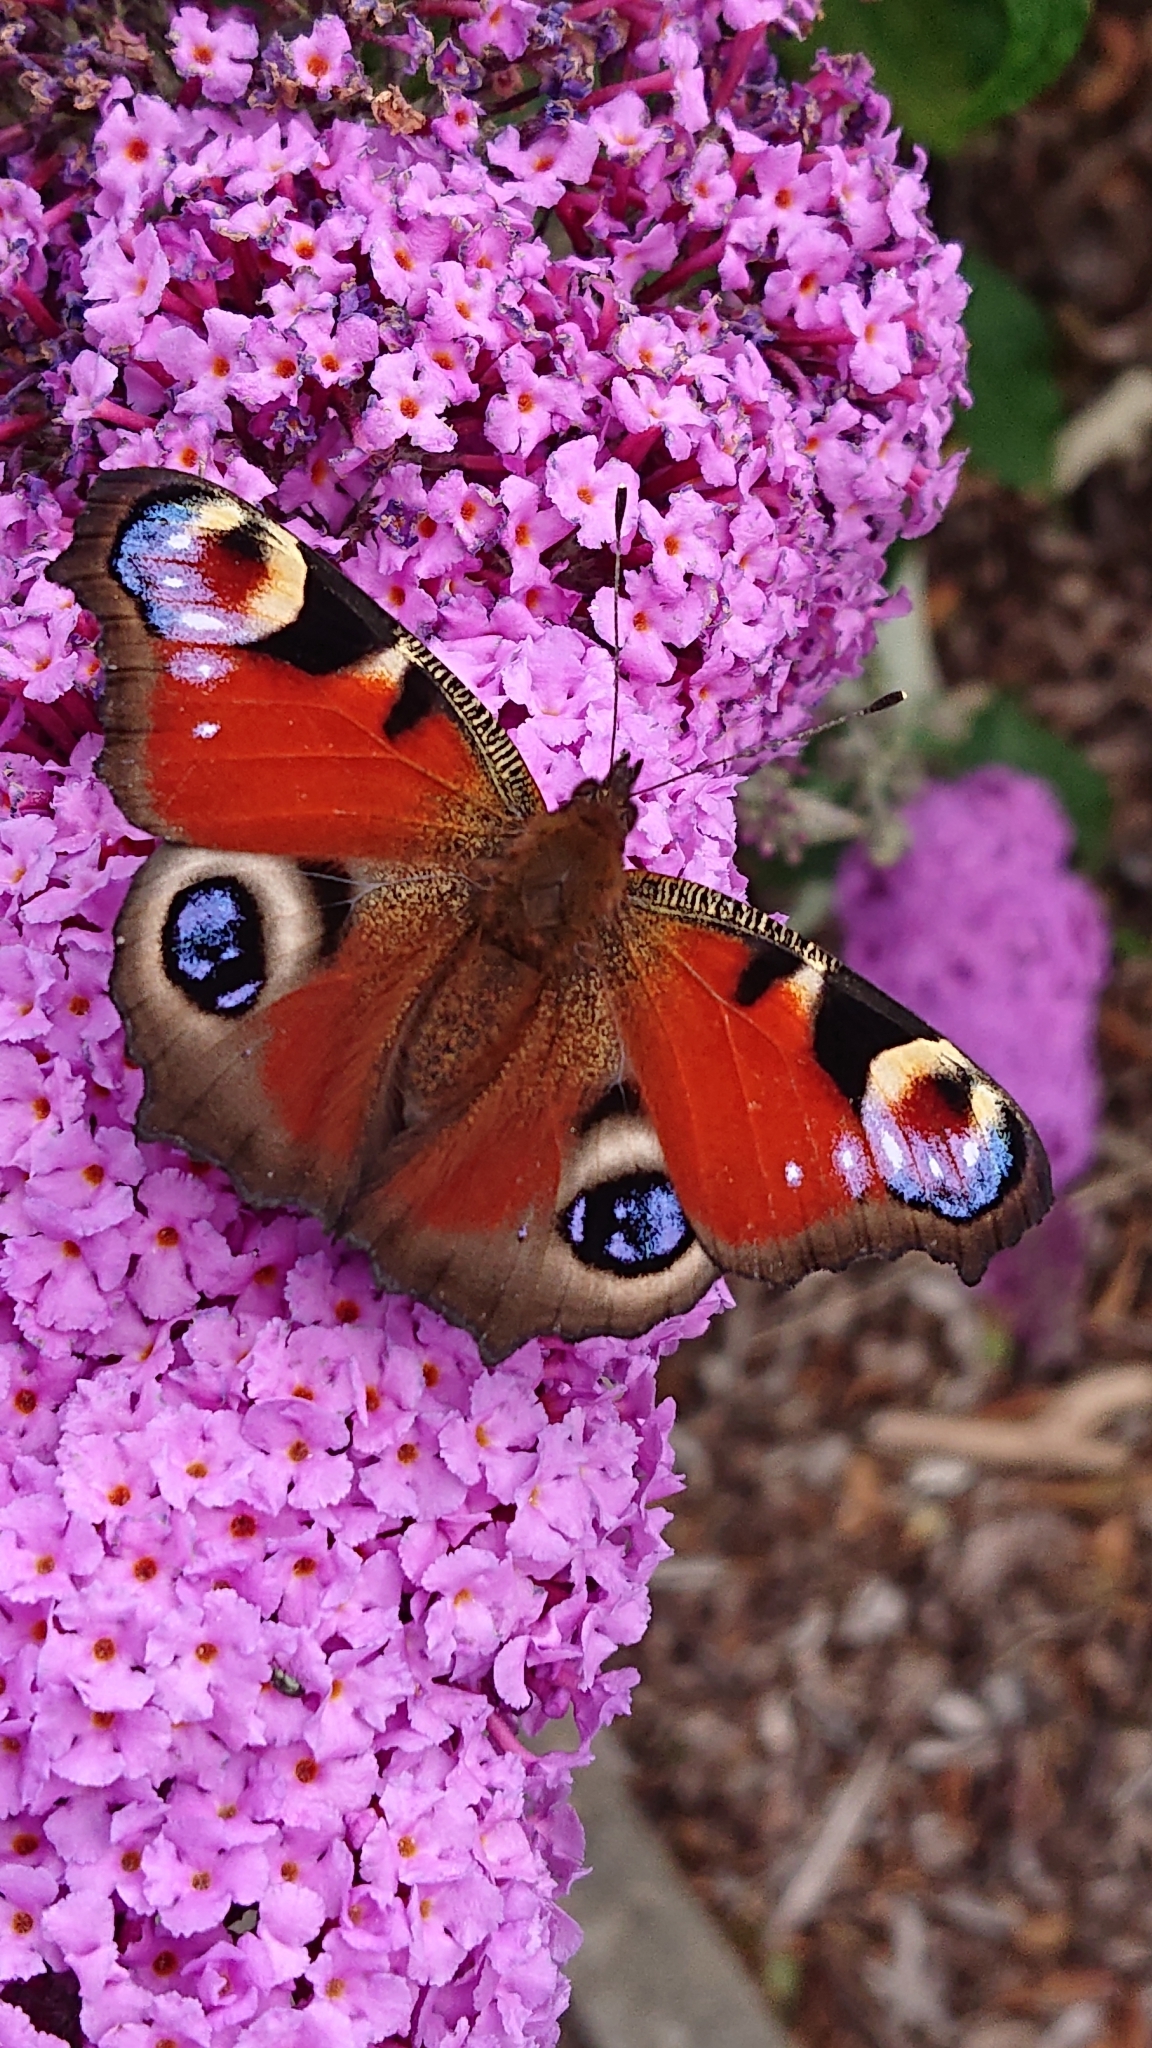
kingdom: Animalia
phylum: Arthropoda
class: Insecta
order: Lepidoptera
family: Nymphalidae
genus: Aglais
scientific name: Aglais io
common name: Peacock
